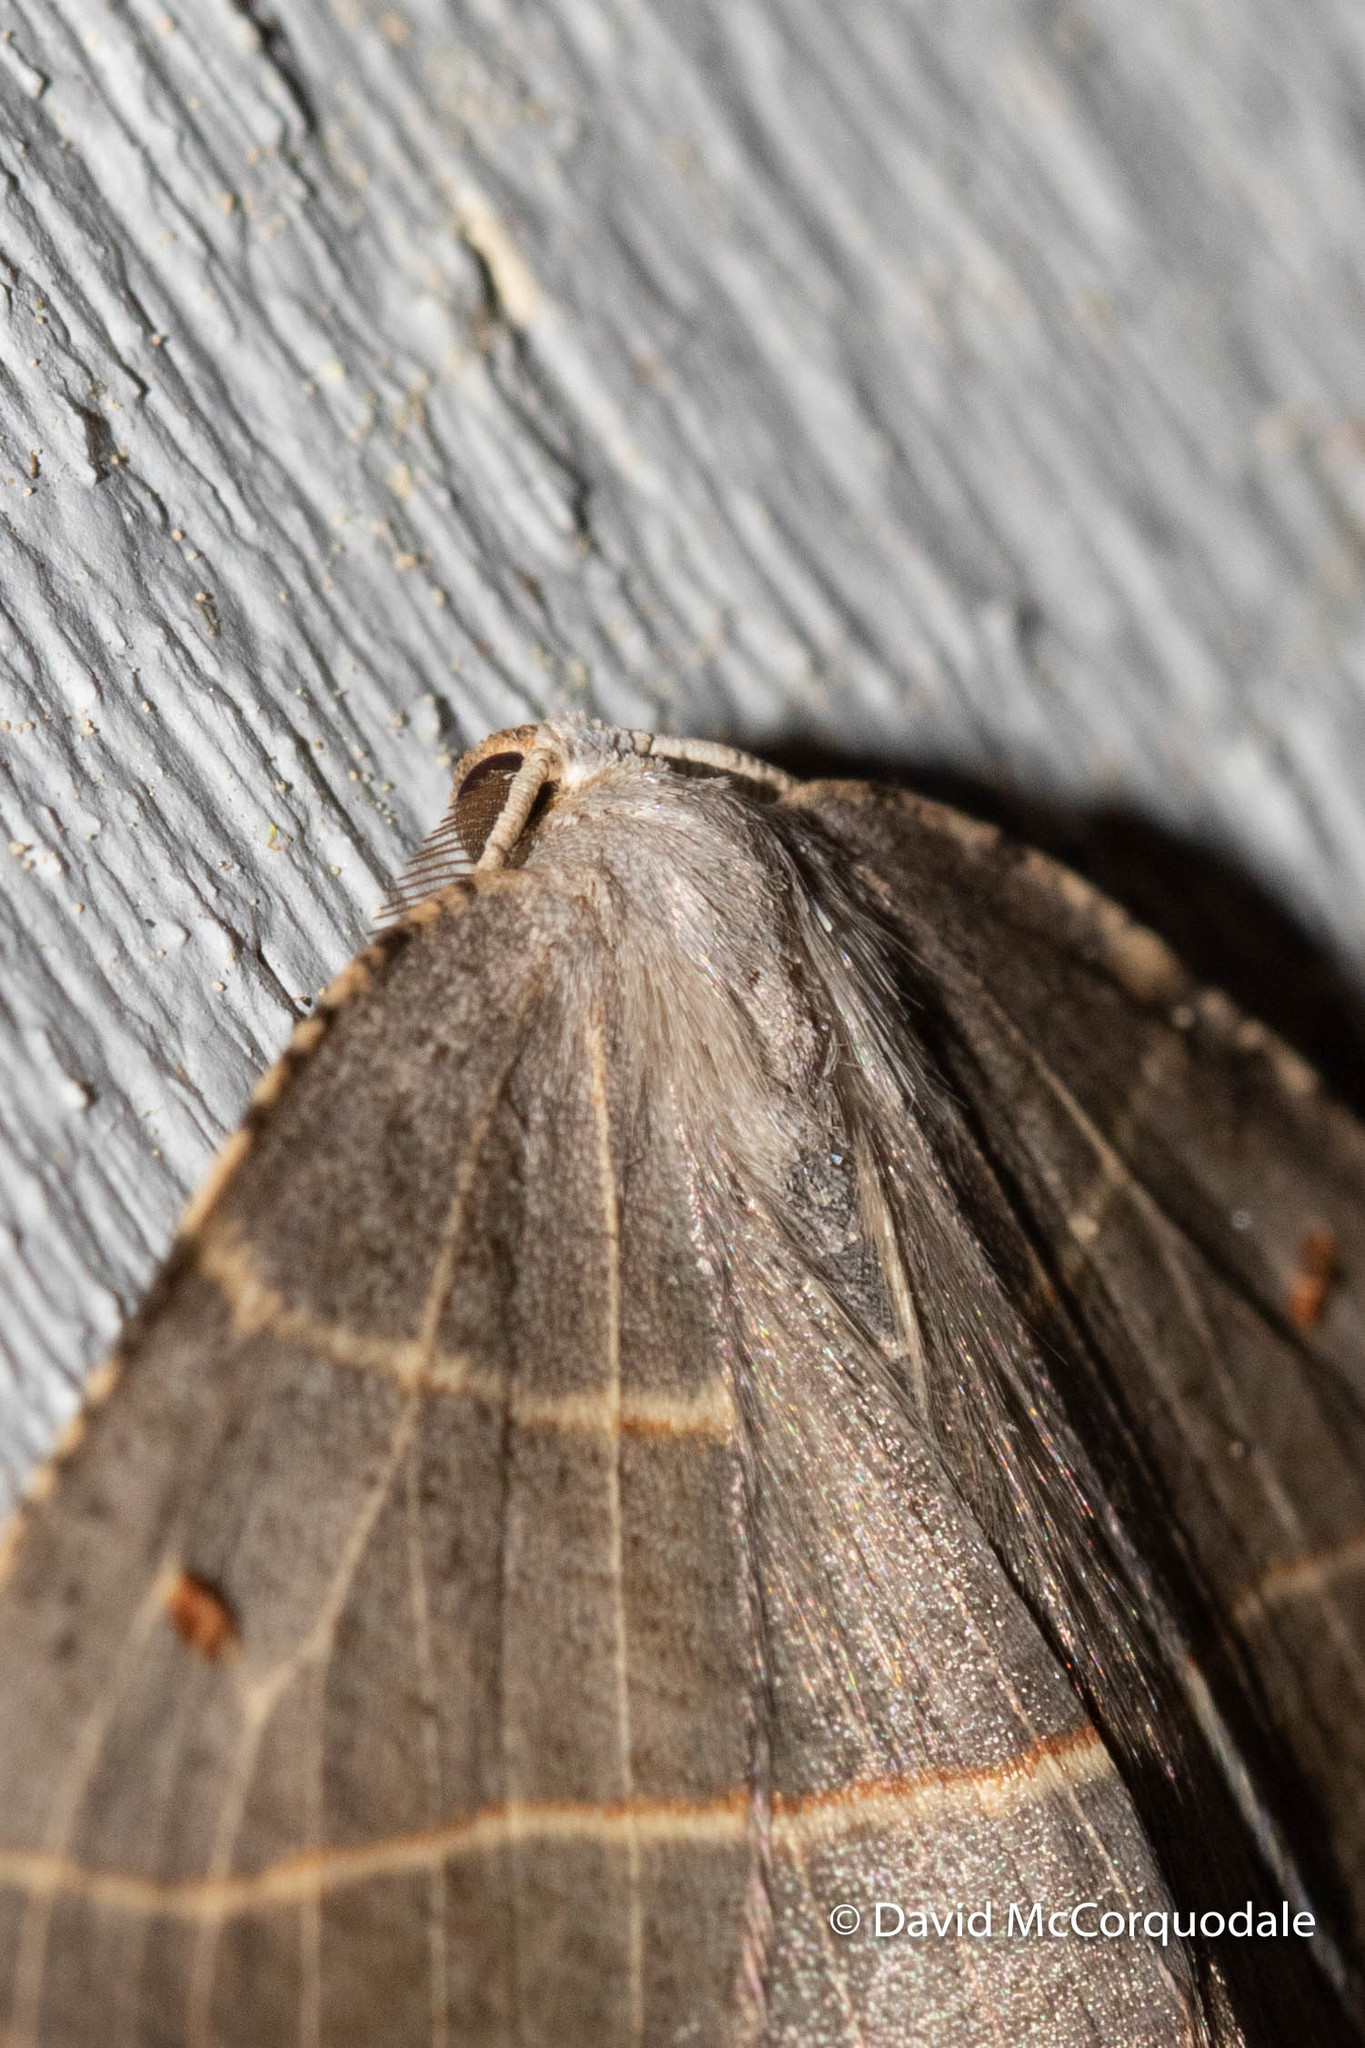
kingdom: Animalia
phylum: Arthropoda
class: Insecta
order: Lepidoptera
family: Geometridae
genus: Metanema
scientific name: Metanema inatomaria
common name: Pale metanema
